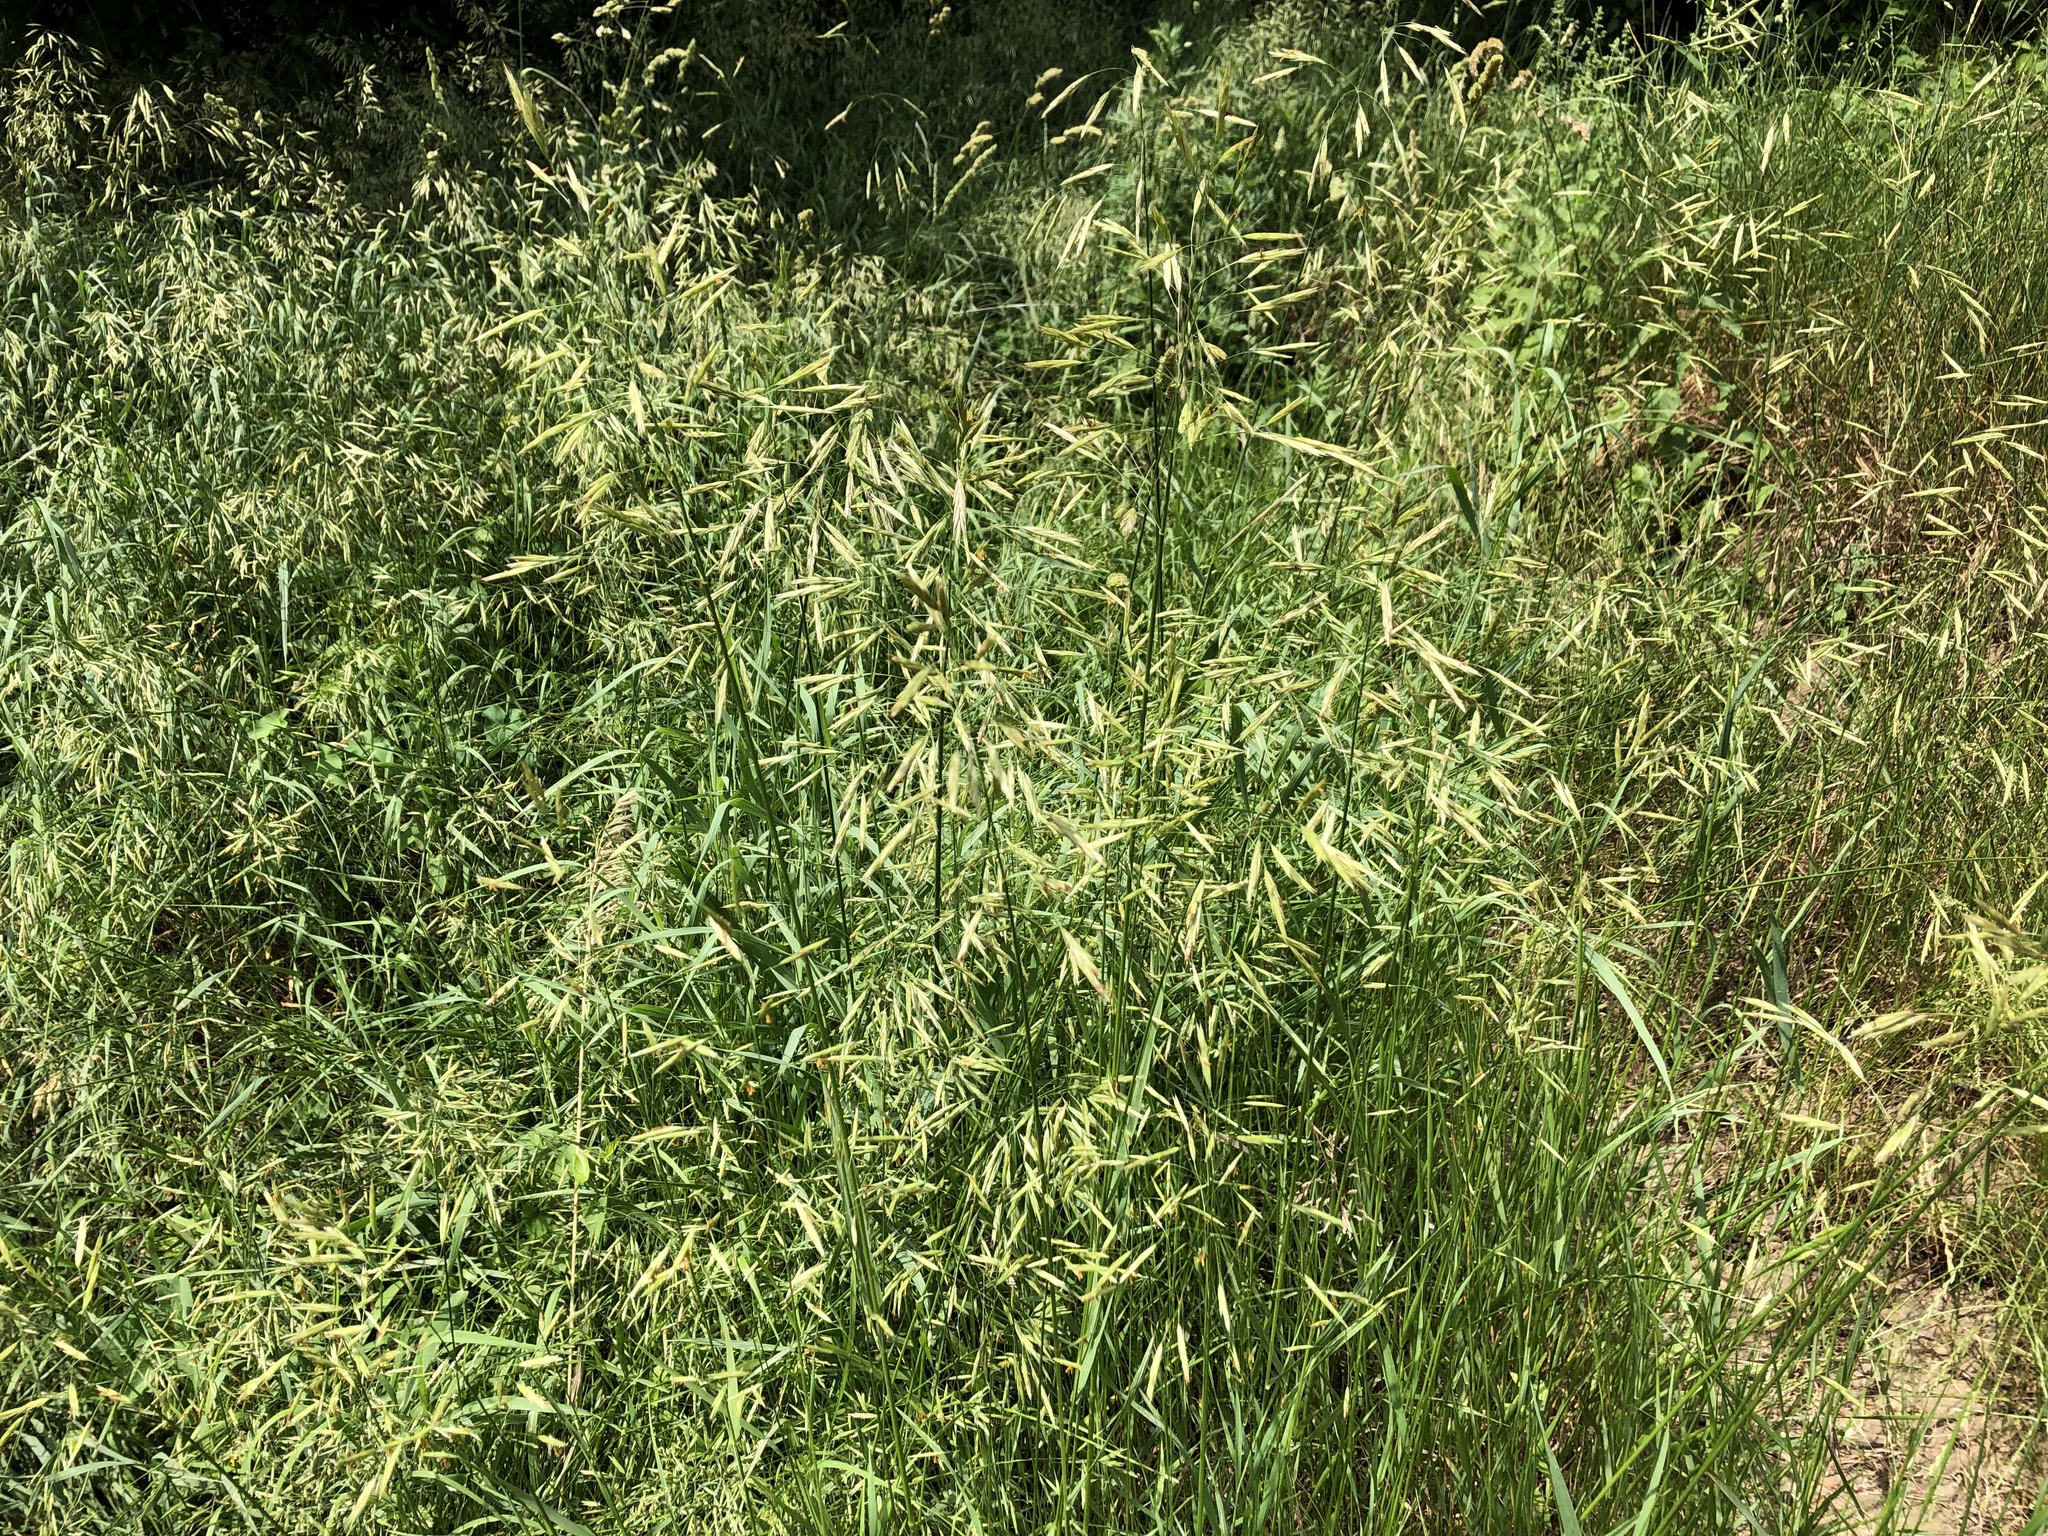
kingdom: Plantae
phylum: Tracheophyta
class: Liliopsida
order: Poales
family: Poaceae
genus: Bromus
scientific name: Bromus inermis
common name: Smooth brome
